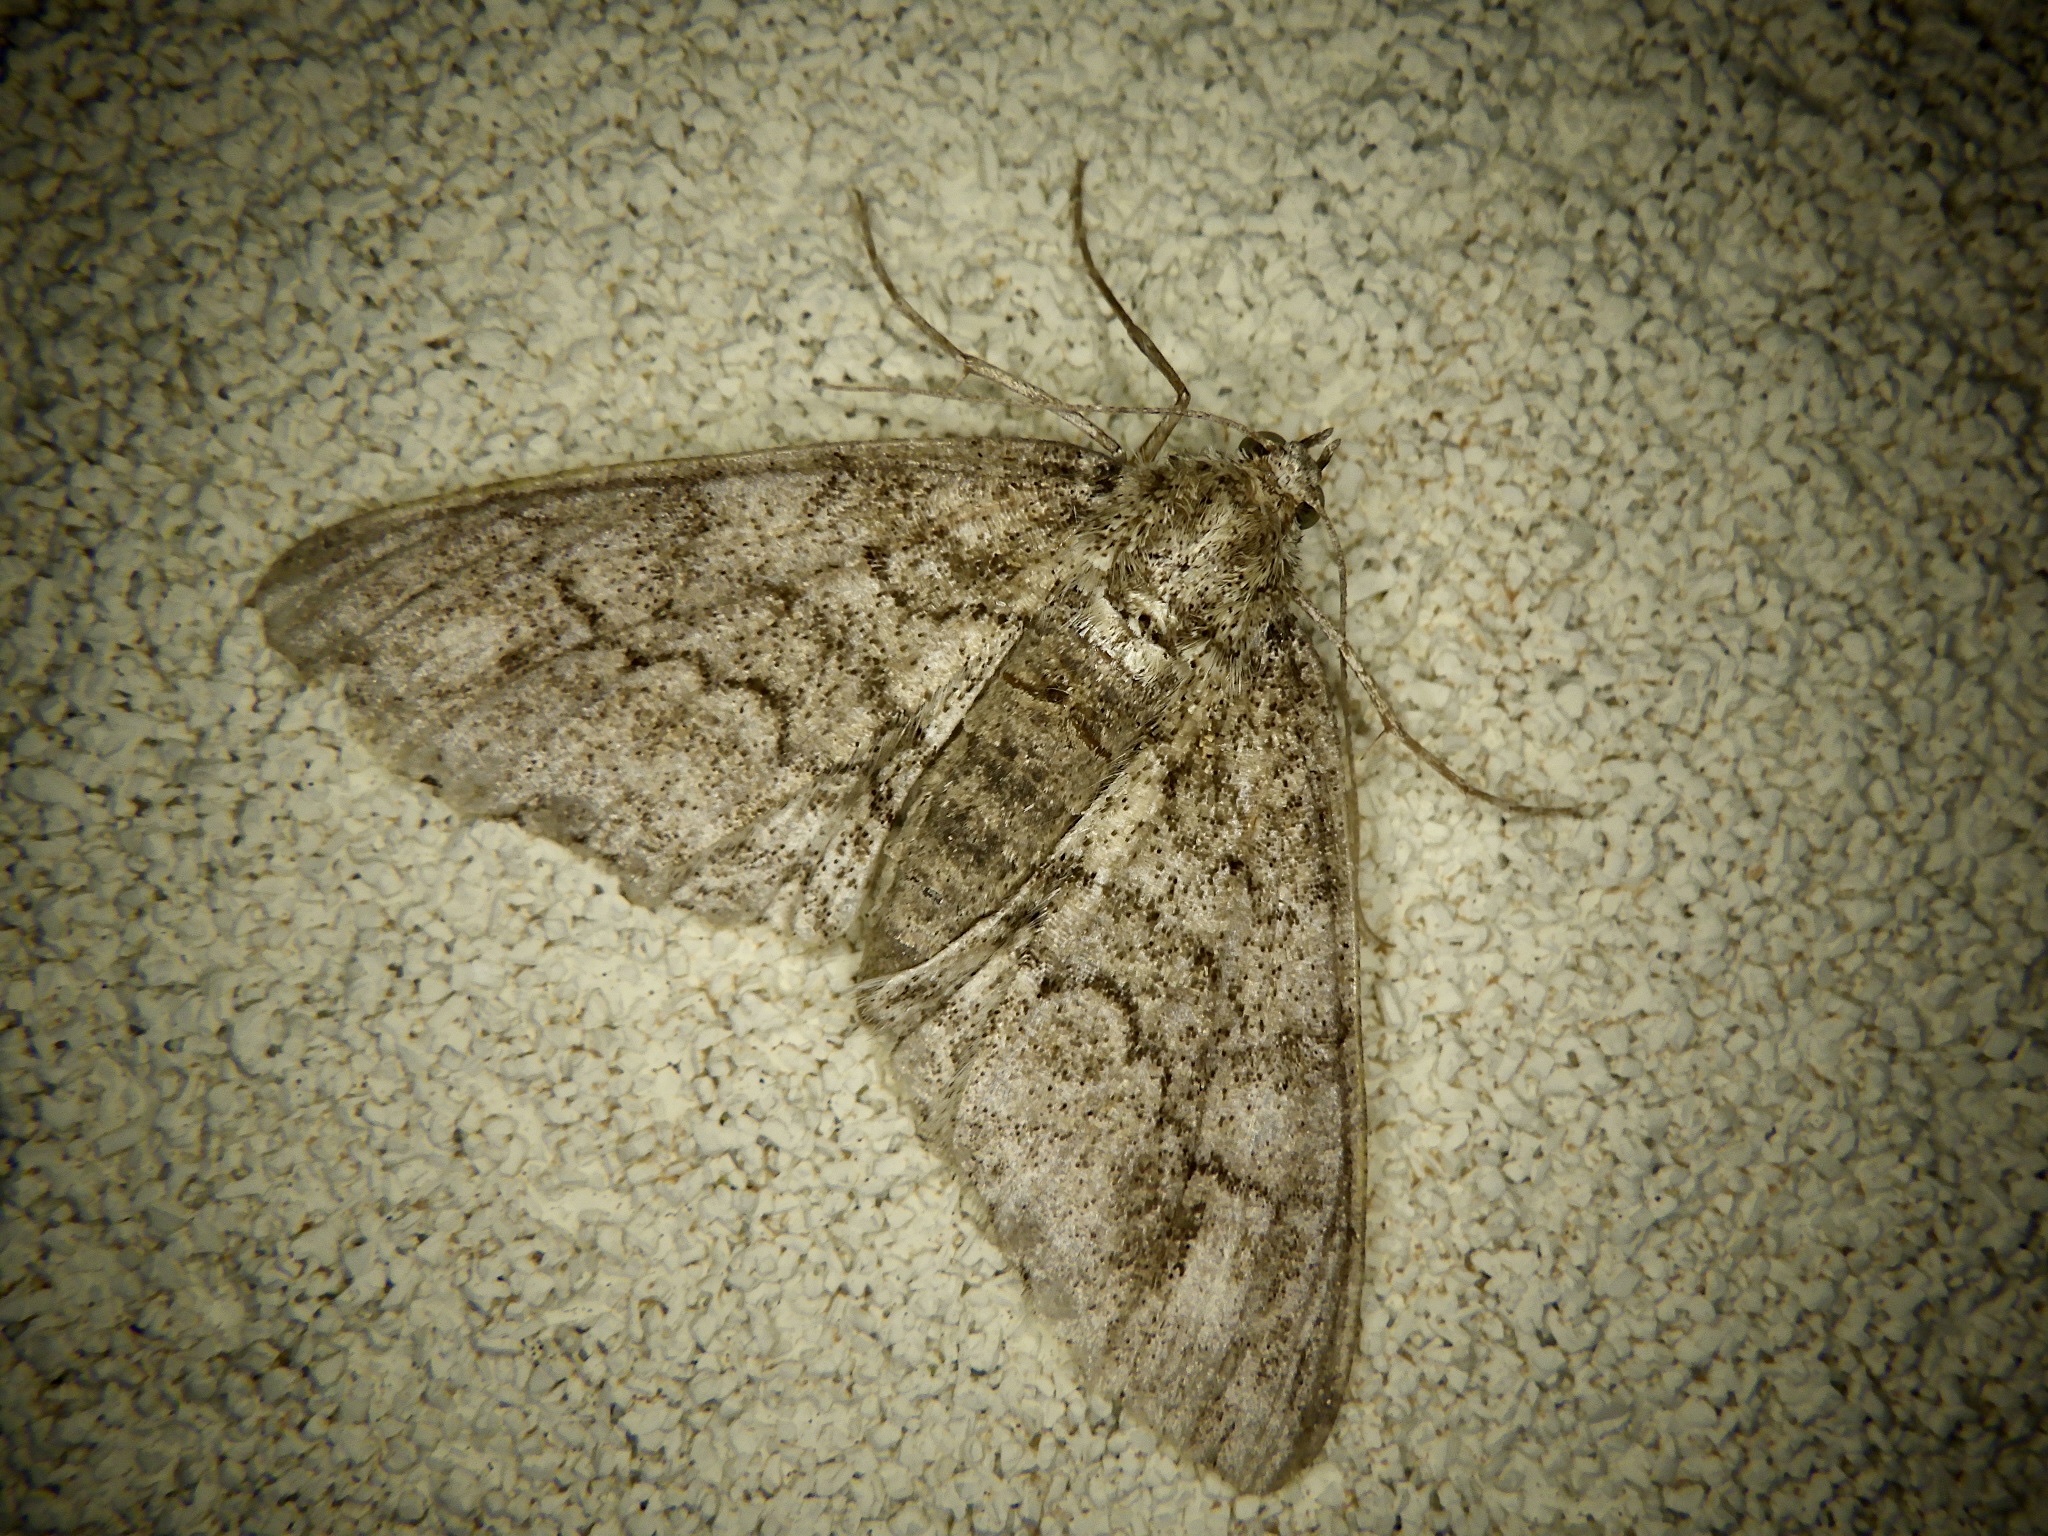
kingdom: Animalia
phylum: Arthropoda
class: Insecta
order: Lepidoptera
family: Geometridae
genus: Cleora
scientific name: Cleora leucophaea
